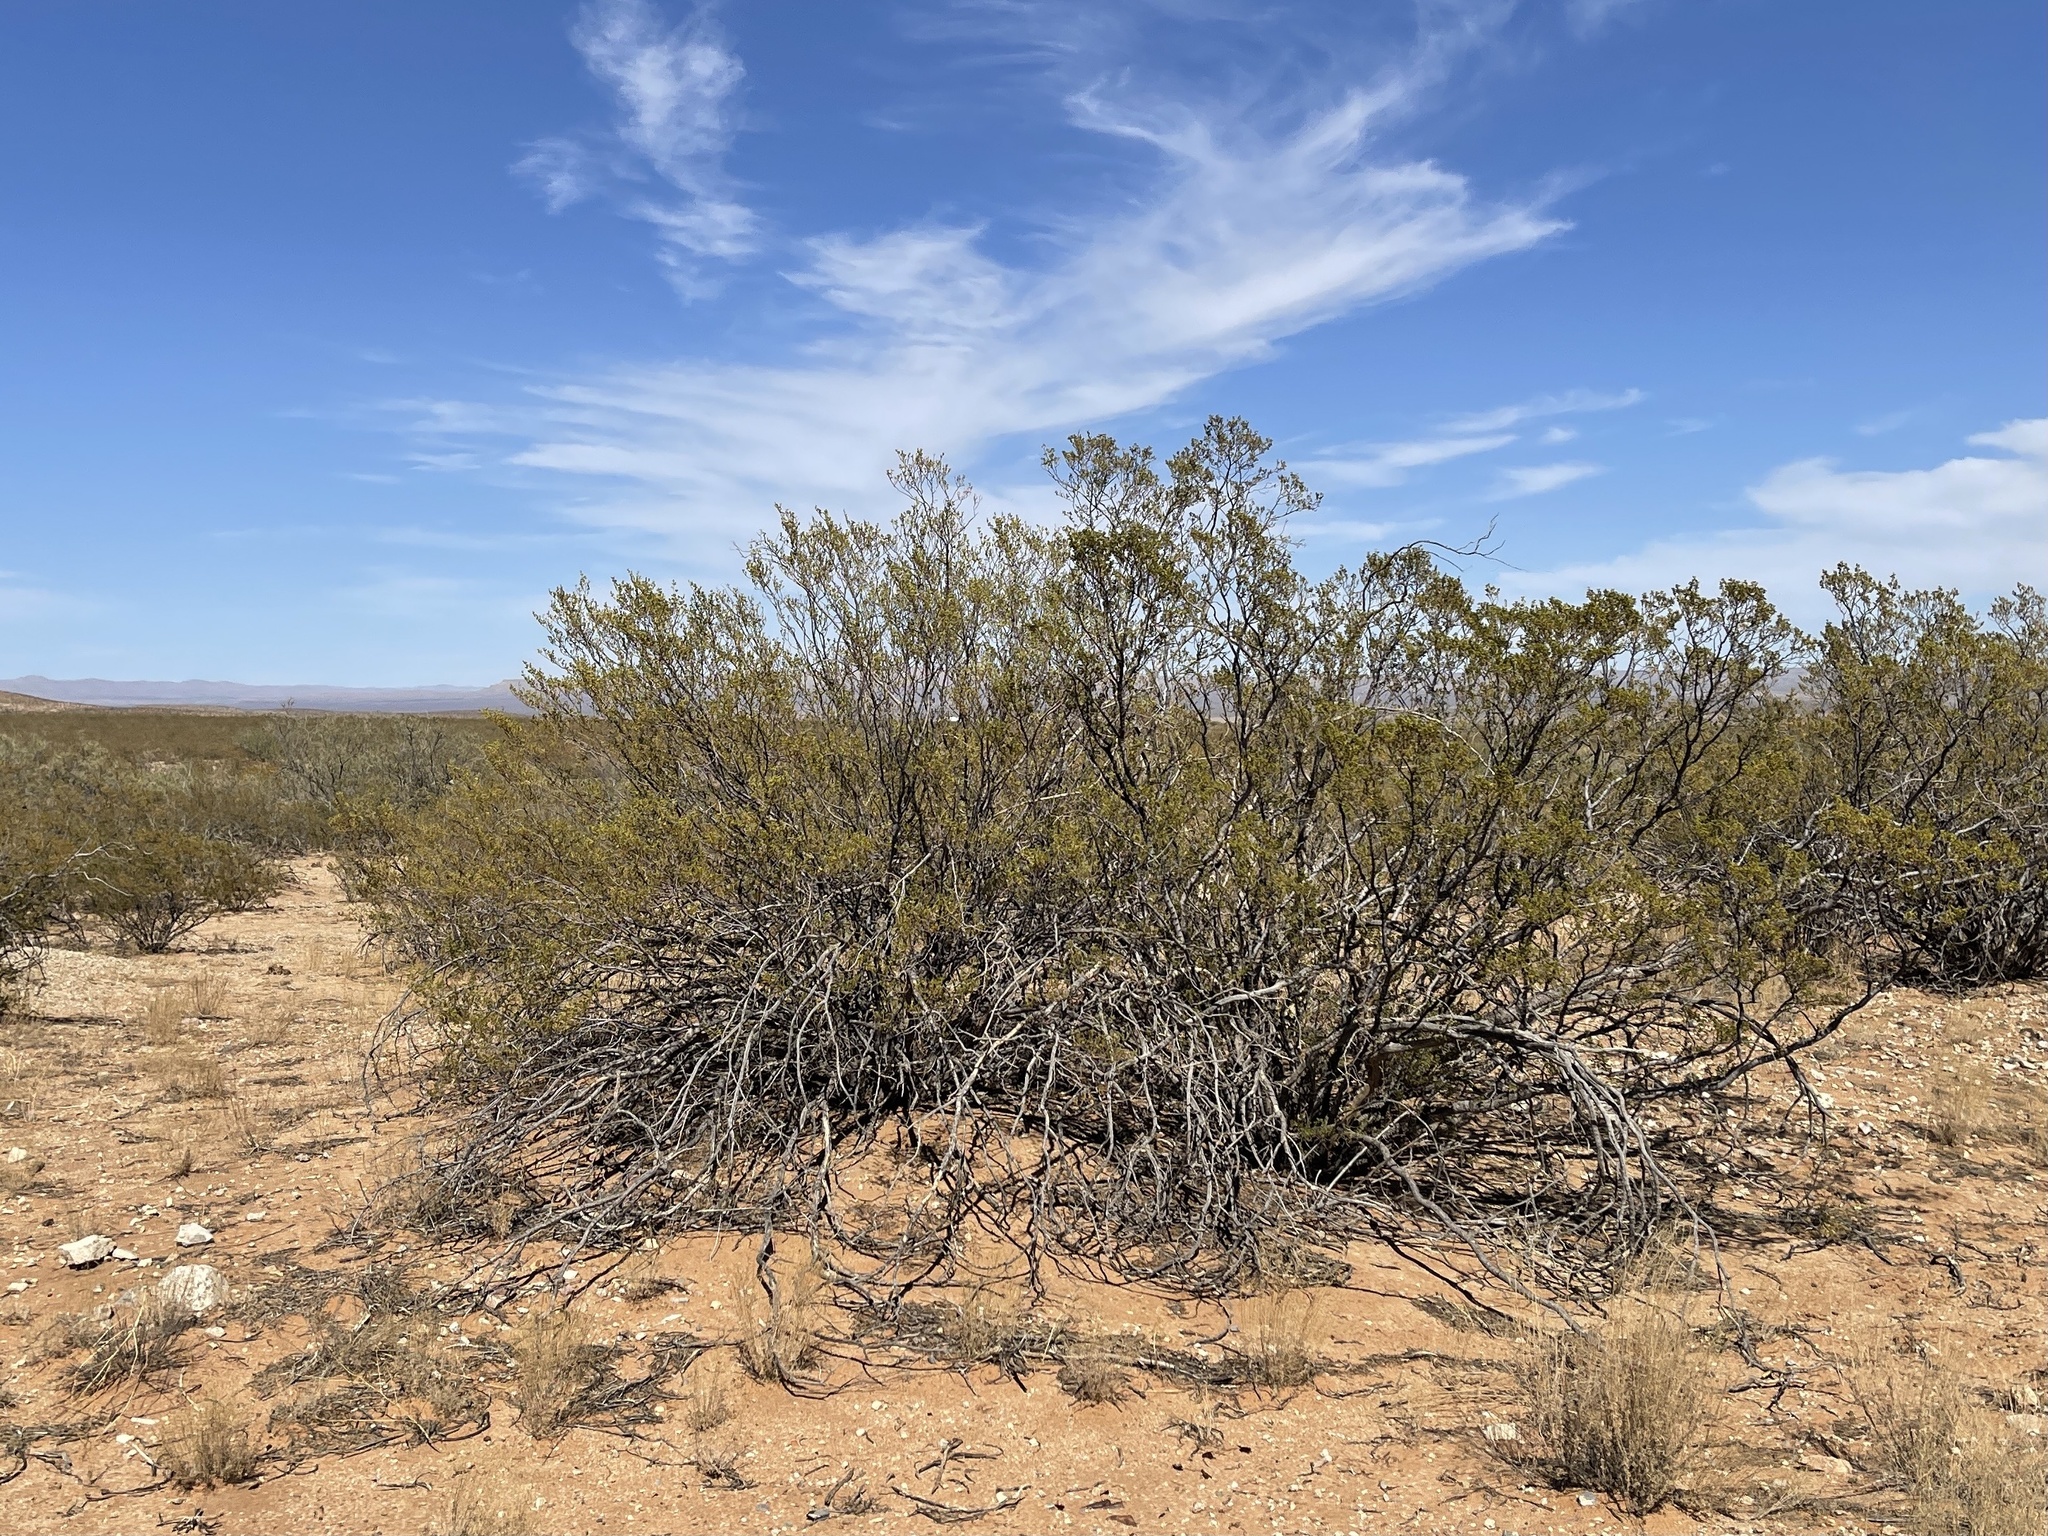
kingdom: Plantae
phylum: Tracheophyta
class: Magnoliopsida
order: Zygophyllales
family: Zygophyllaceae
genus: Larrea
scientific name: Larrea tridentata
